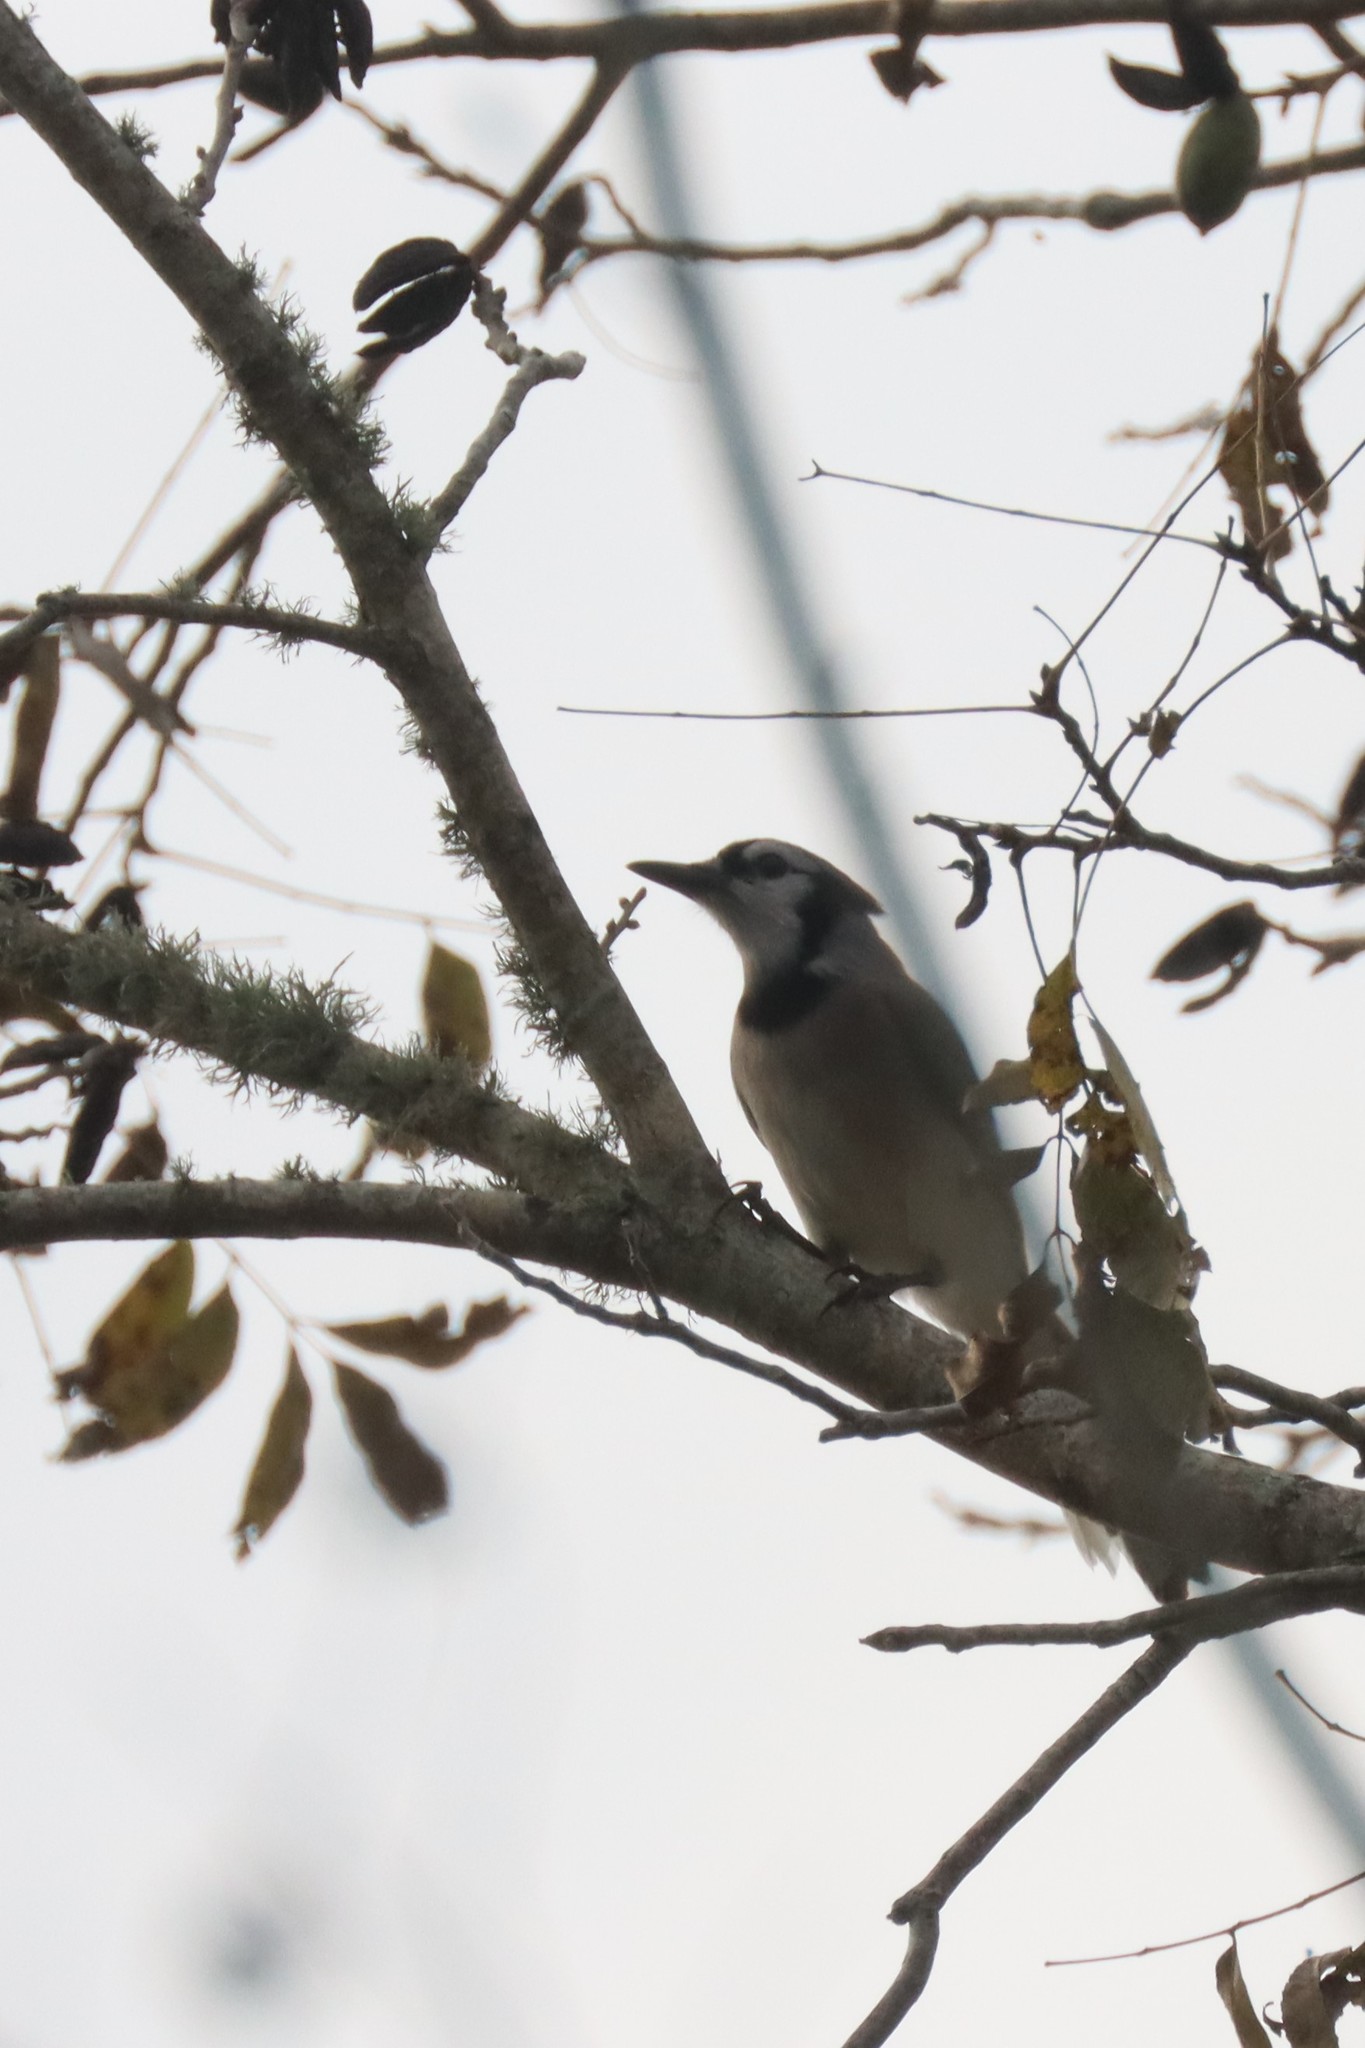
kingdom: Animalia
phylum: Chordata
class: Aves
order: Passeriformes
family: Corvidae
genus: Cyanocitta
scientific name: Cyanocitta cristata
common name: Blue jay
